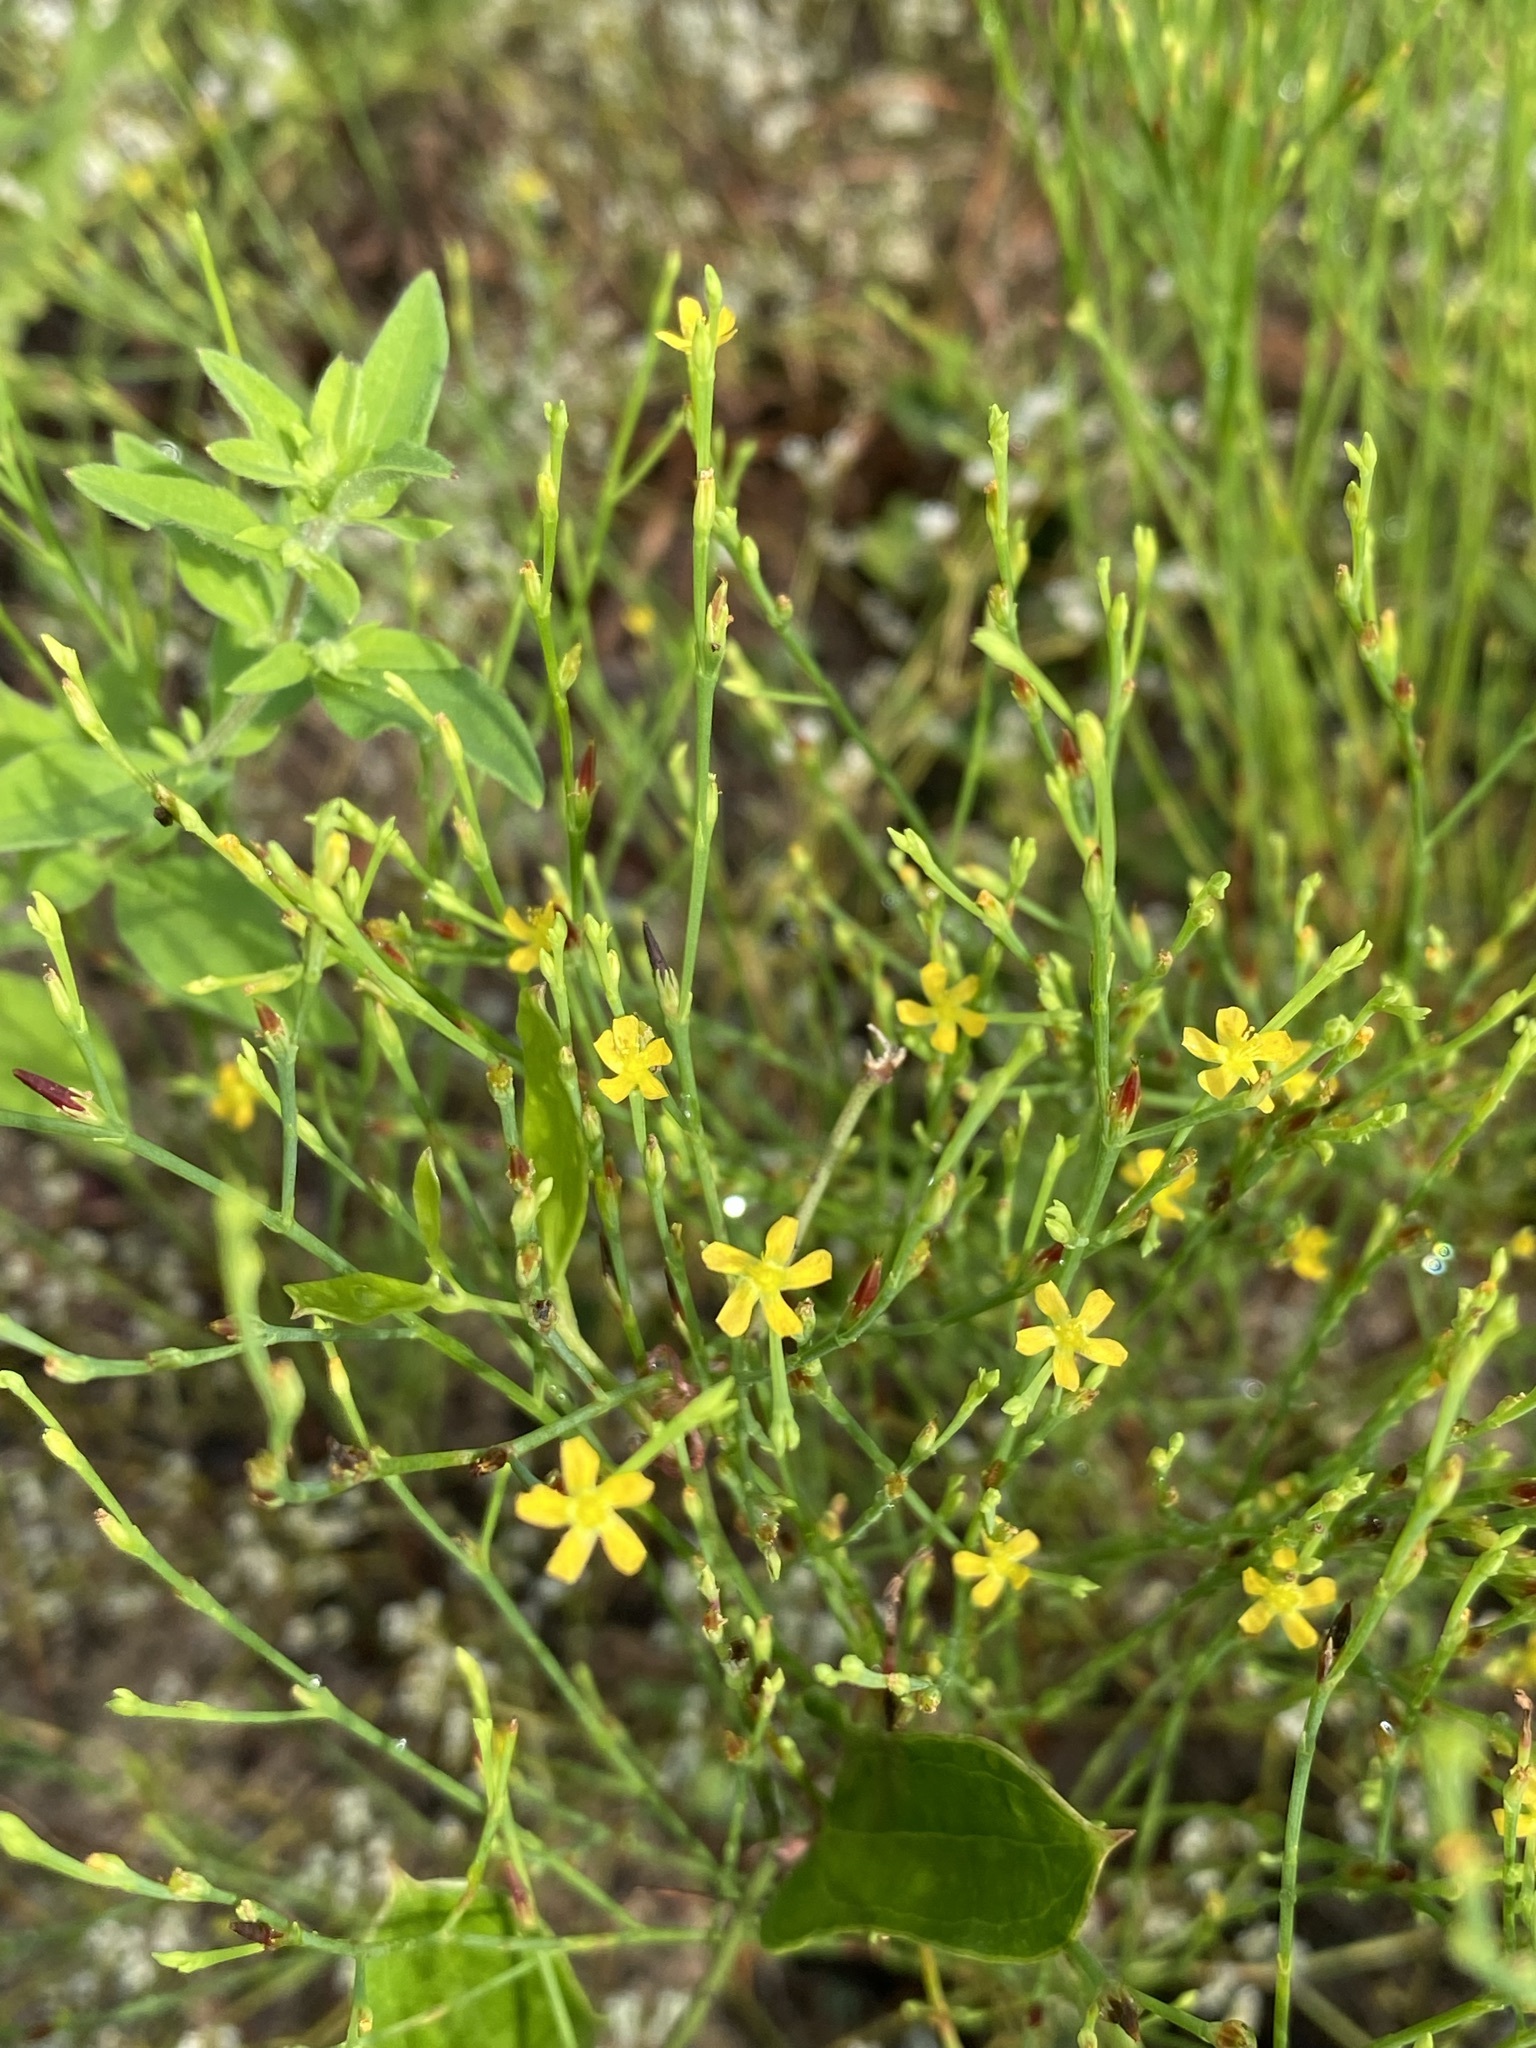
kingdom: Plantae
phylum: Tracheophyta
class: Magnoliopsida
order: Malpighiales
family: Hypericaceae
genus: Hypericum
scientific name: Hypericum gentianoides
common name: Gentian-leaved st. john's-wort
